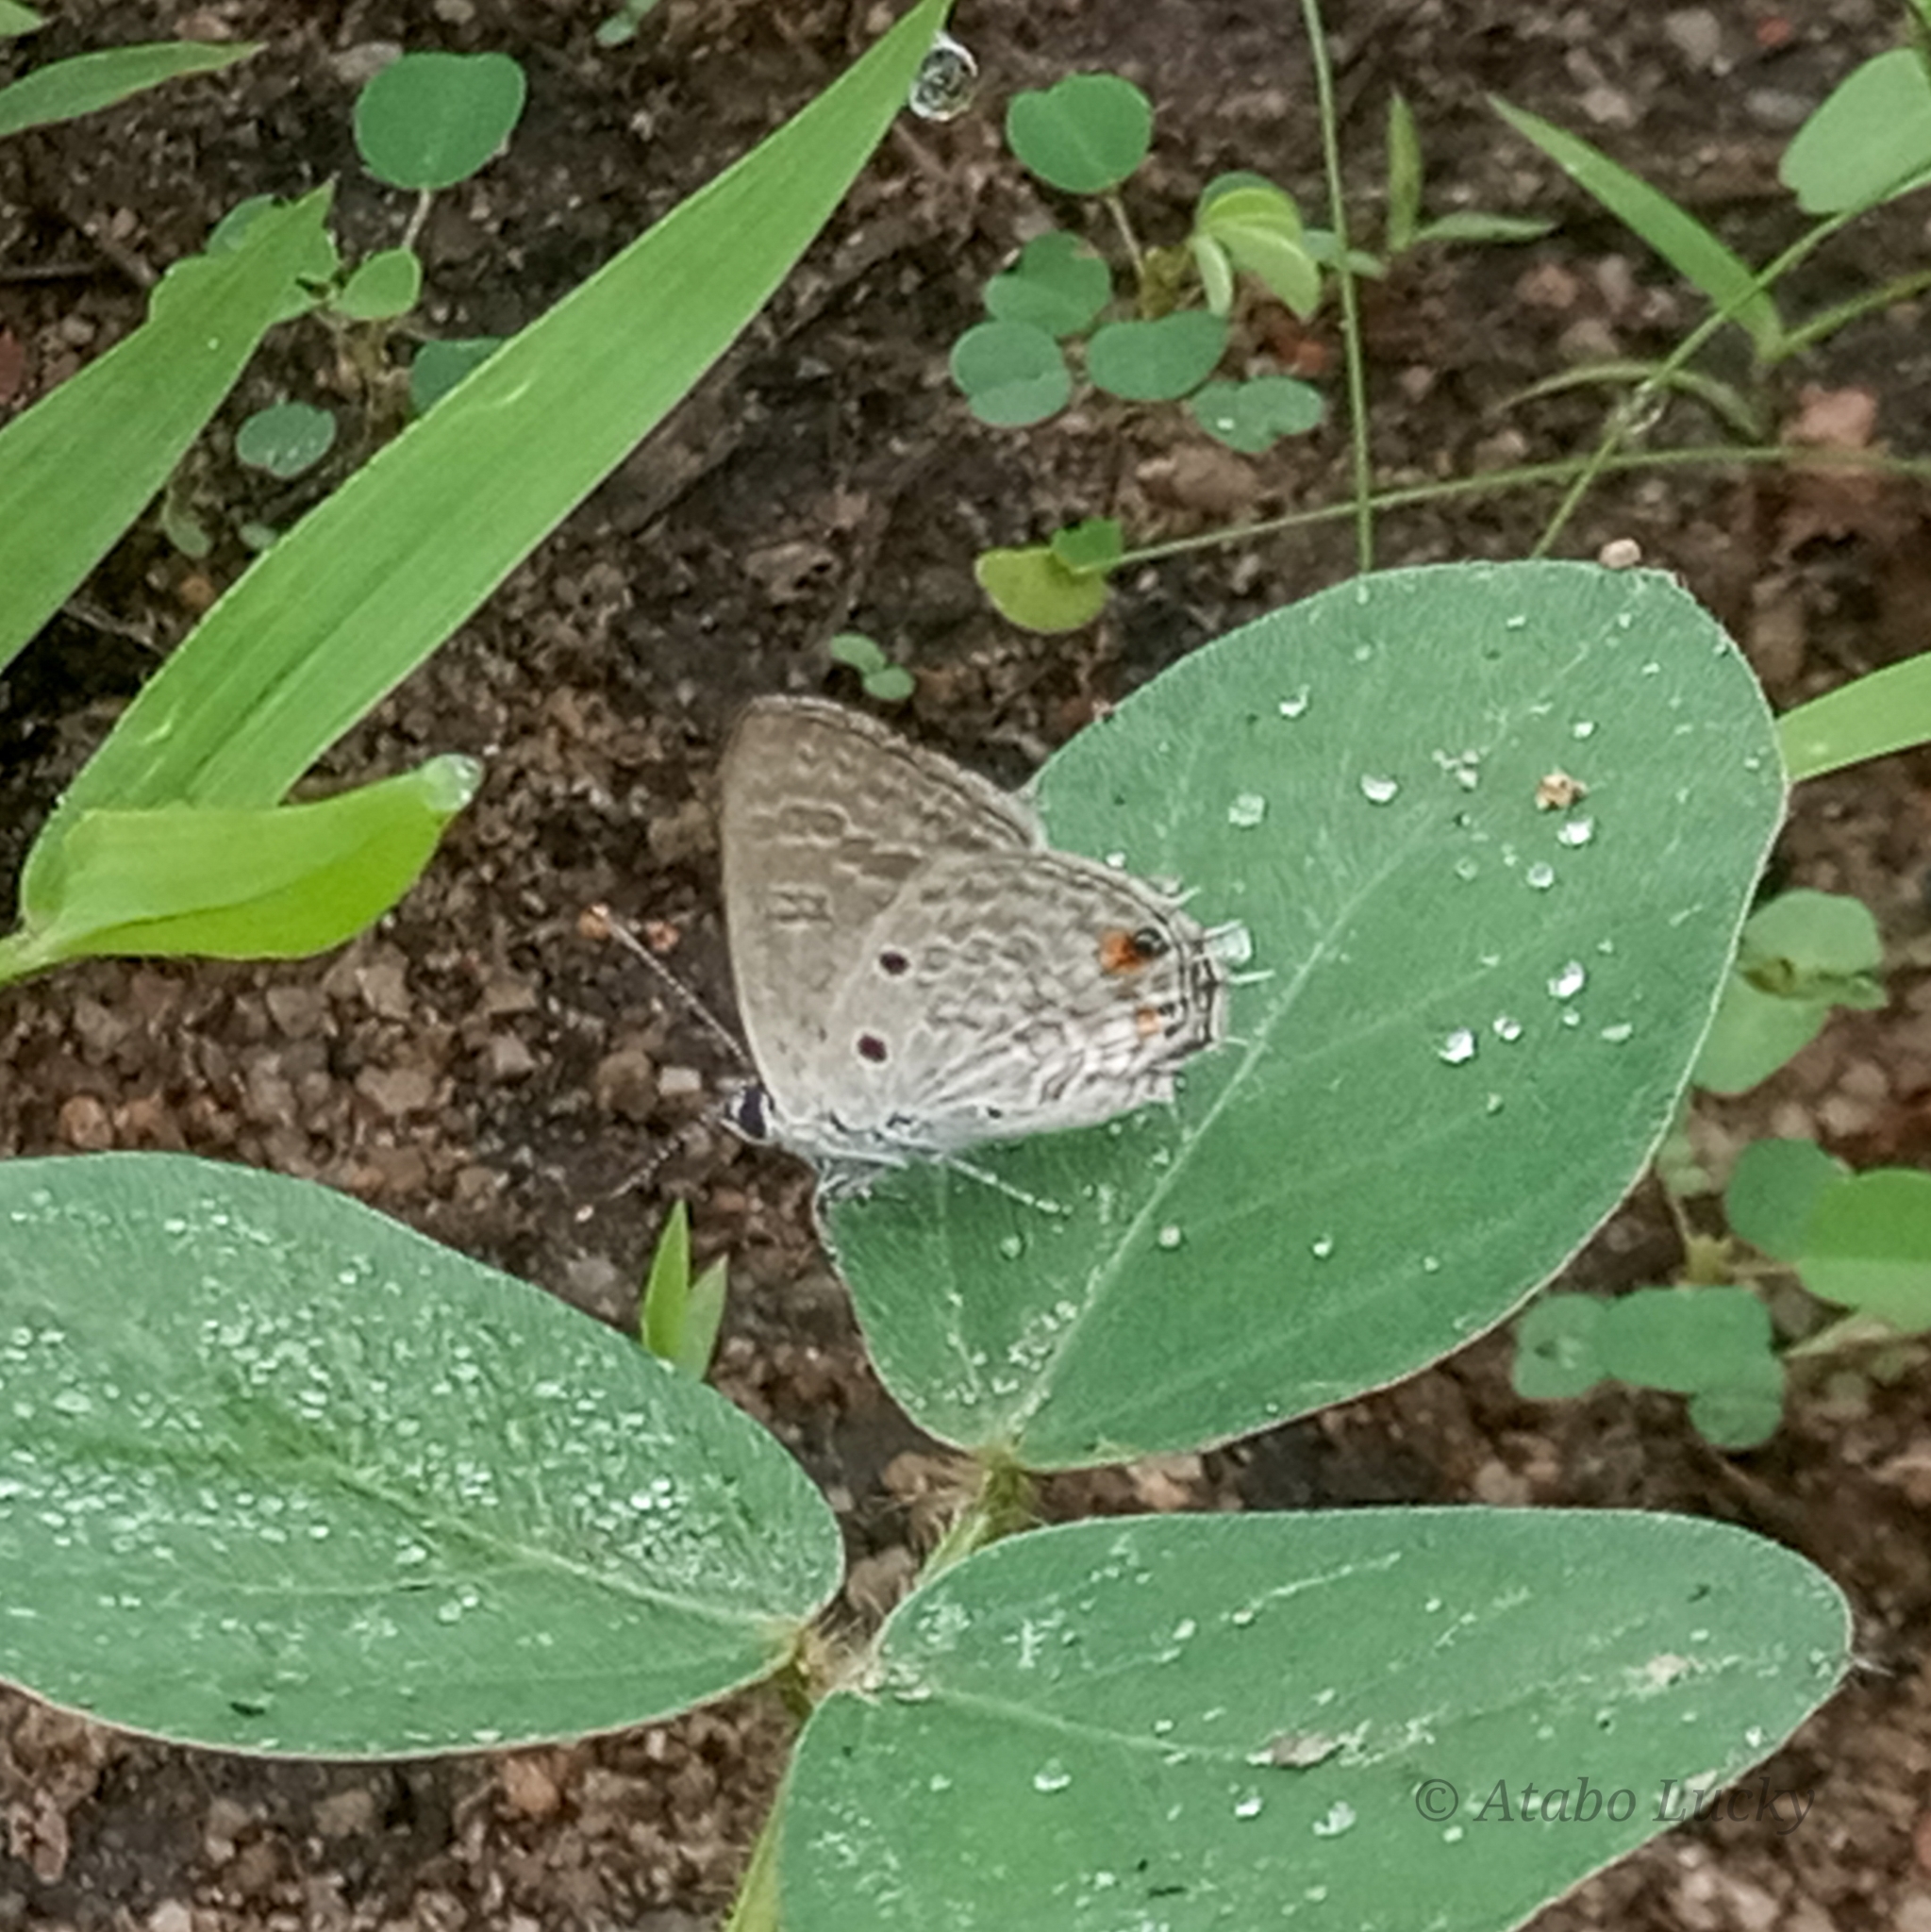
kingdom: Animalia
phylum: Arthropoda
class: Insecta
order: Lepidoptera
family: Lycaenidae
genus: Anthene
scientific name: Anthene lunulata
